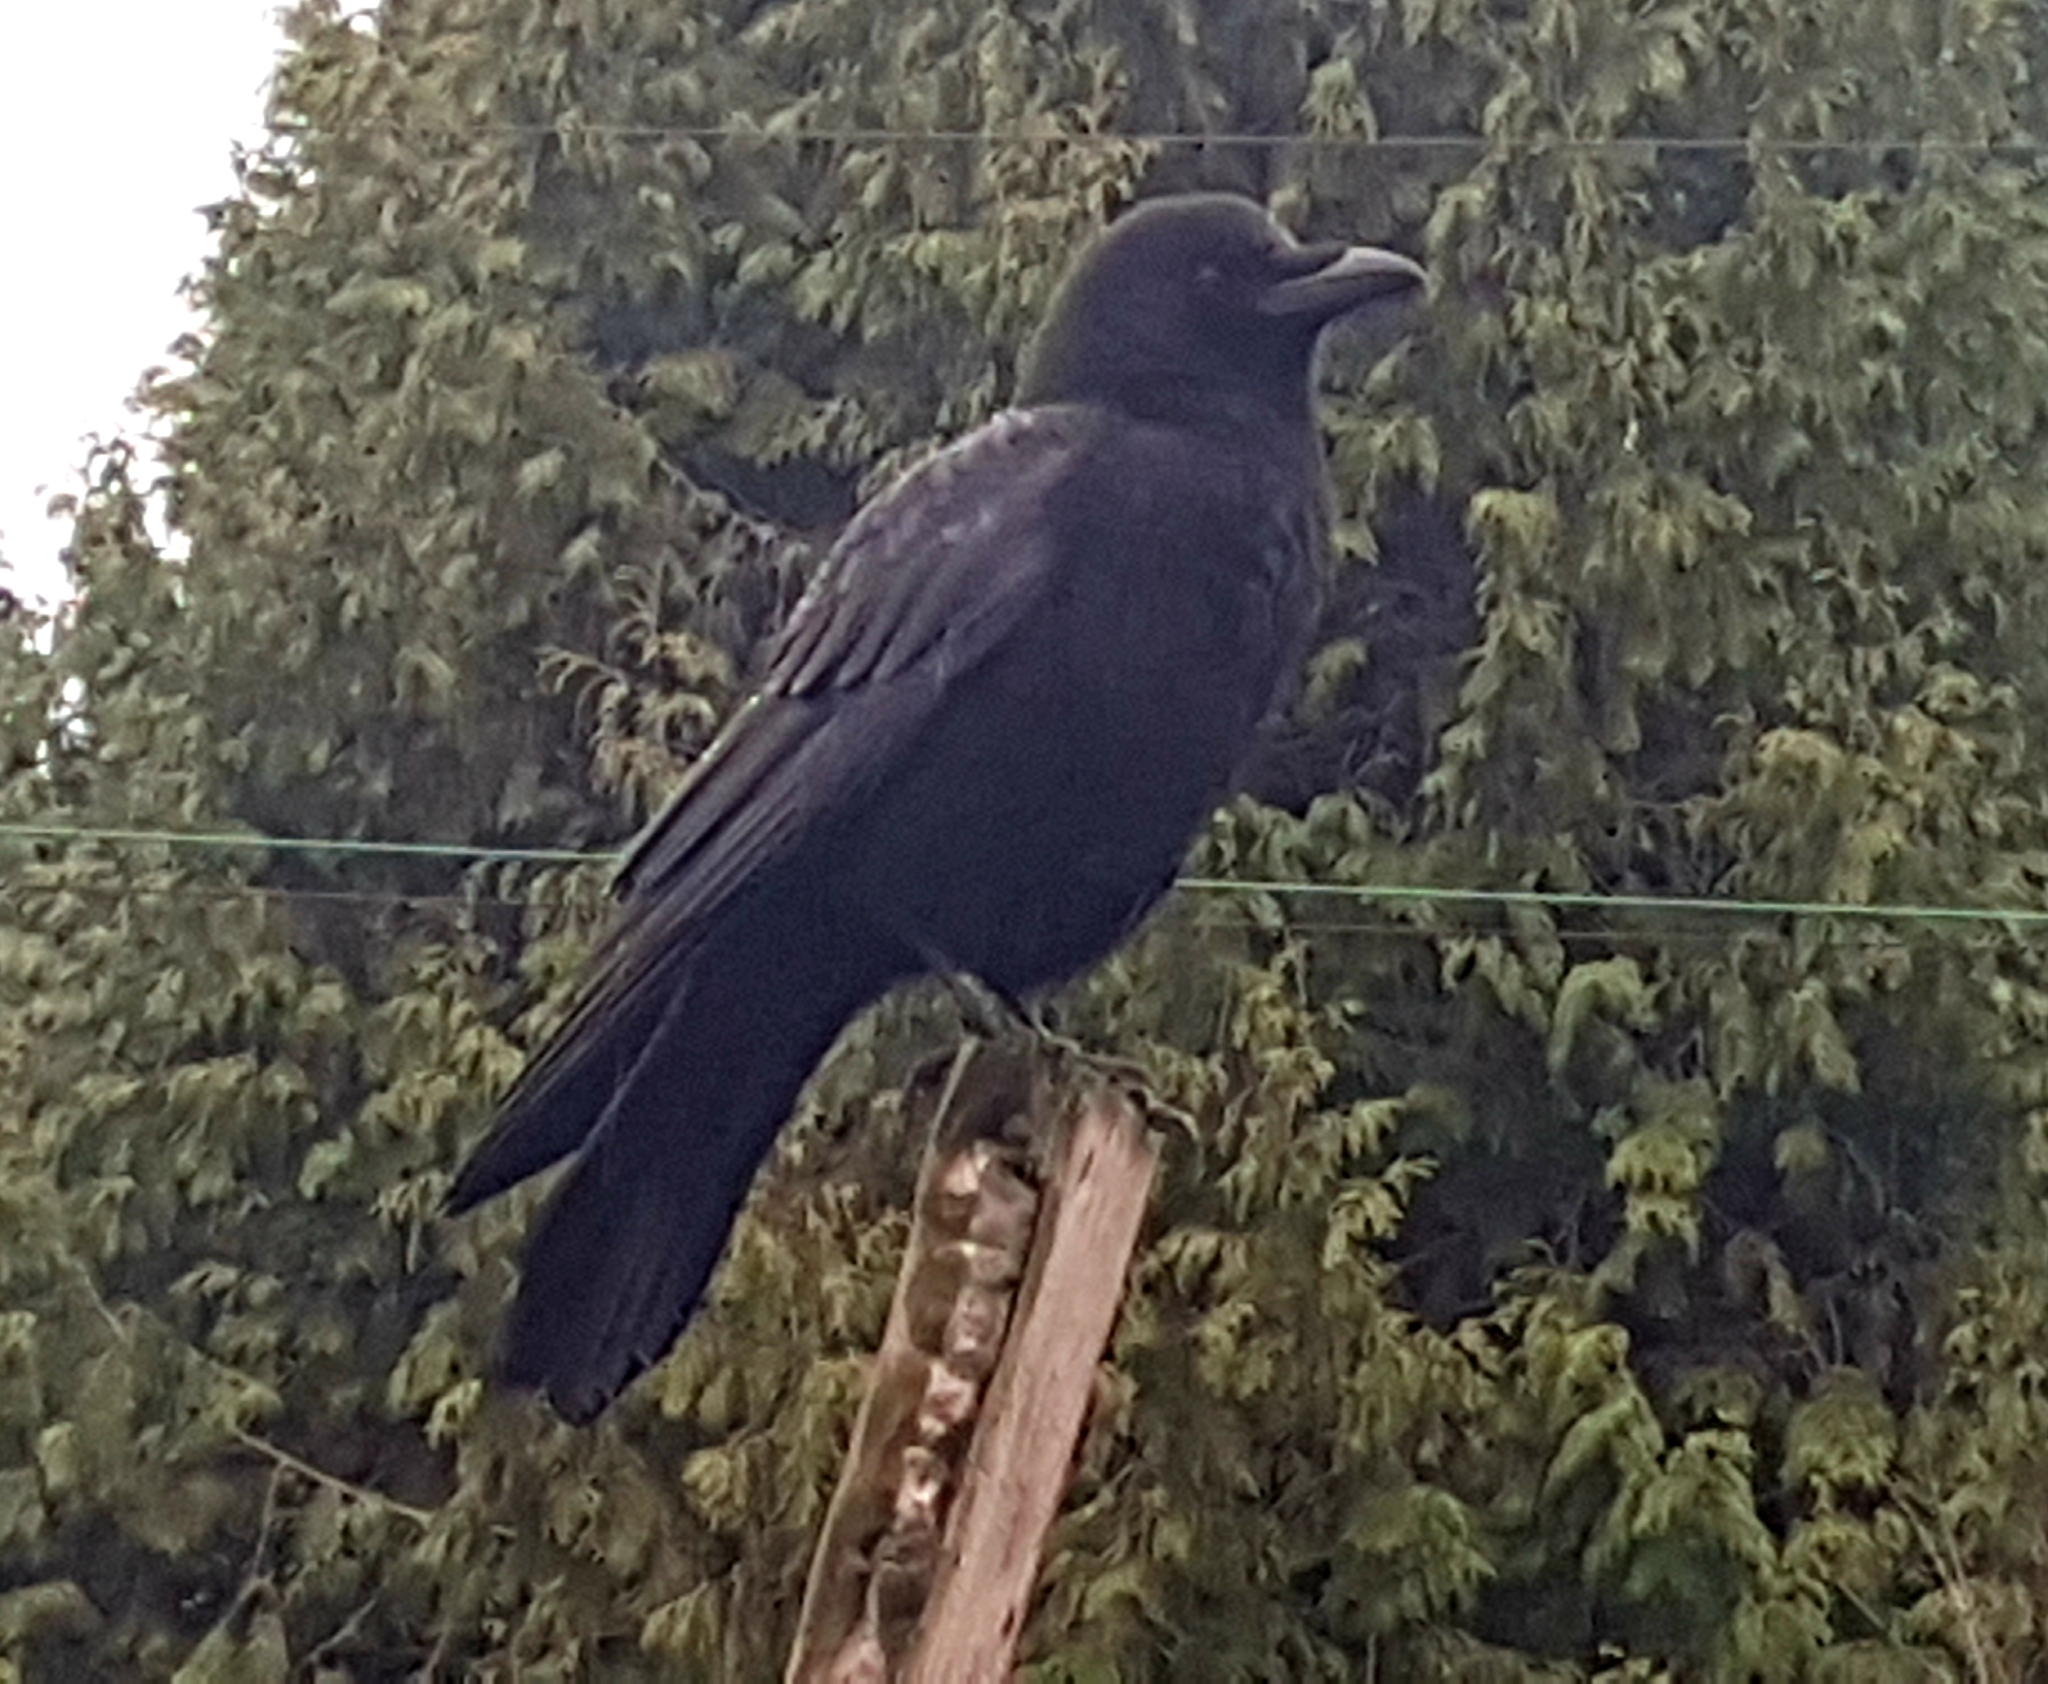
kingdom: Animalia
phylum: Chordata
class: Aves
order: Passeriformes
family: Corvidae
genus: Corvus
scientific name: Corvus brachyrhynchos
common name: American crow
